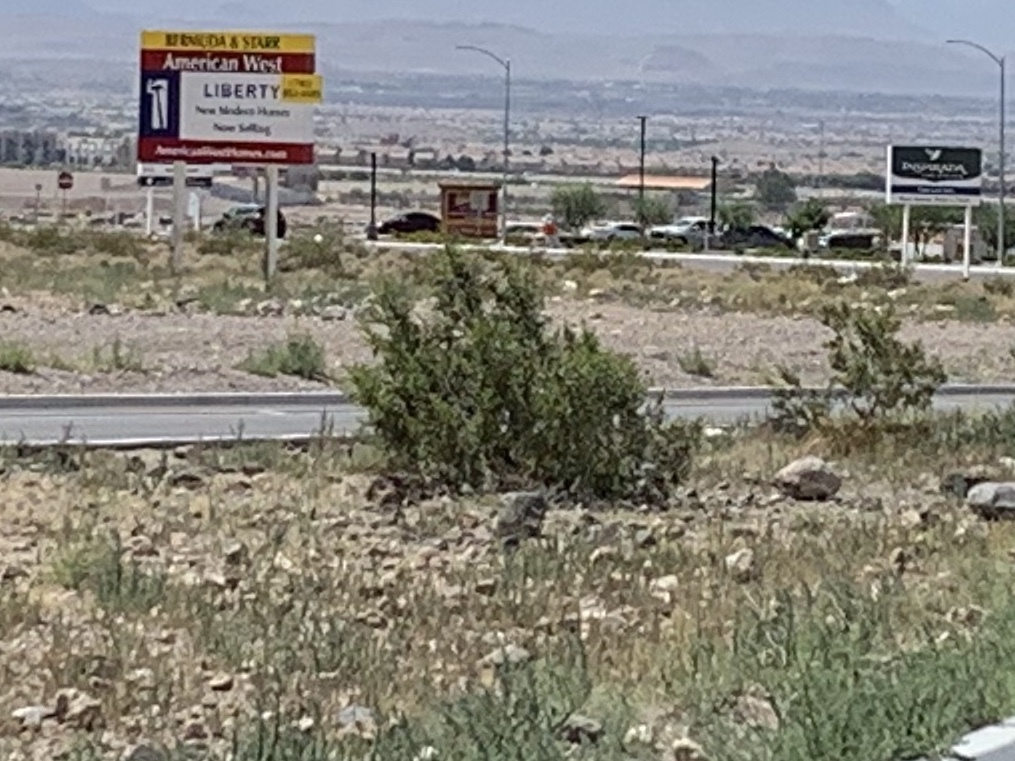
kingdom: Plantae
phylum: Tracheophyta
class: Magnoliopsida
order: Zygophyllales
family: Zygophyllaceae
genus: Larrea
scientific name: Larrea tridentata
